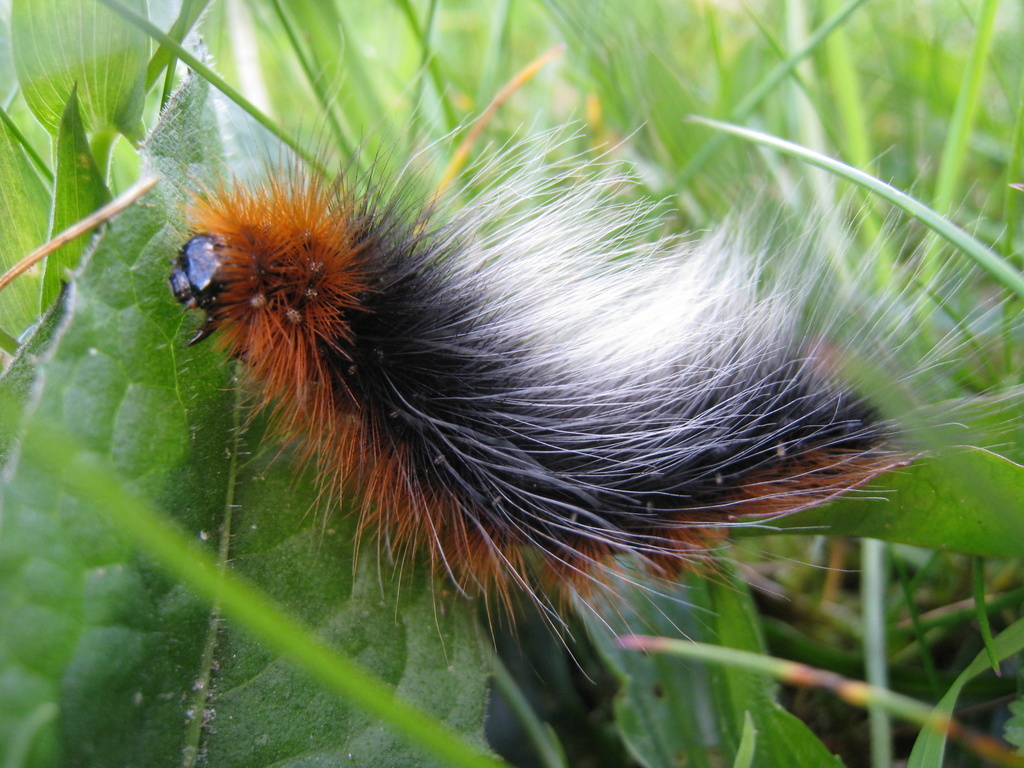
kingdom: Animalia
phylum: Arthropoda
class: Insecta
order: Lepidoptera
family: Erebidae
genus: Arctia
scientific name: Arctia caja
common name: Garden tiger
